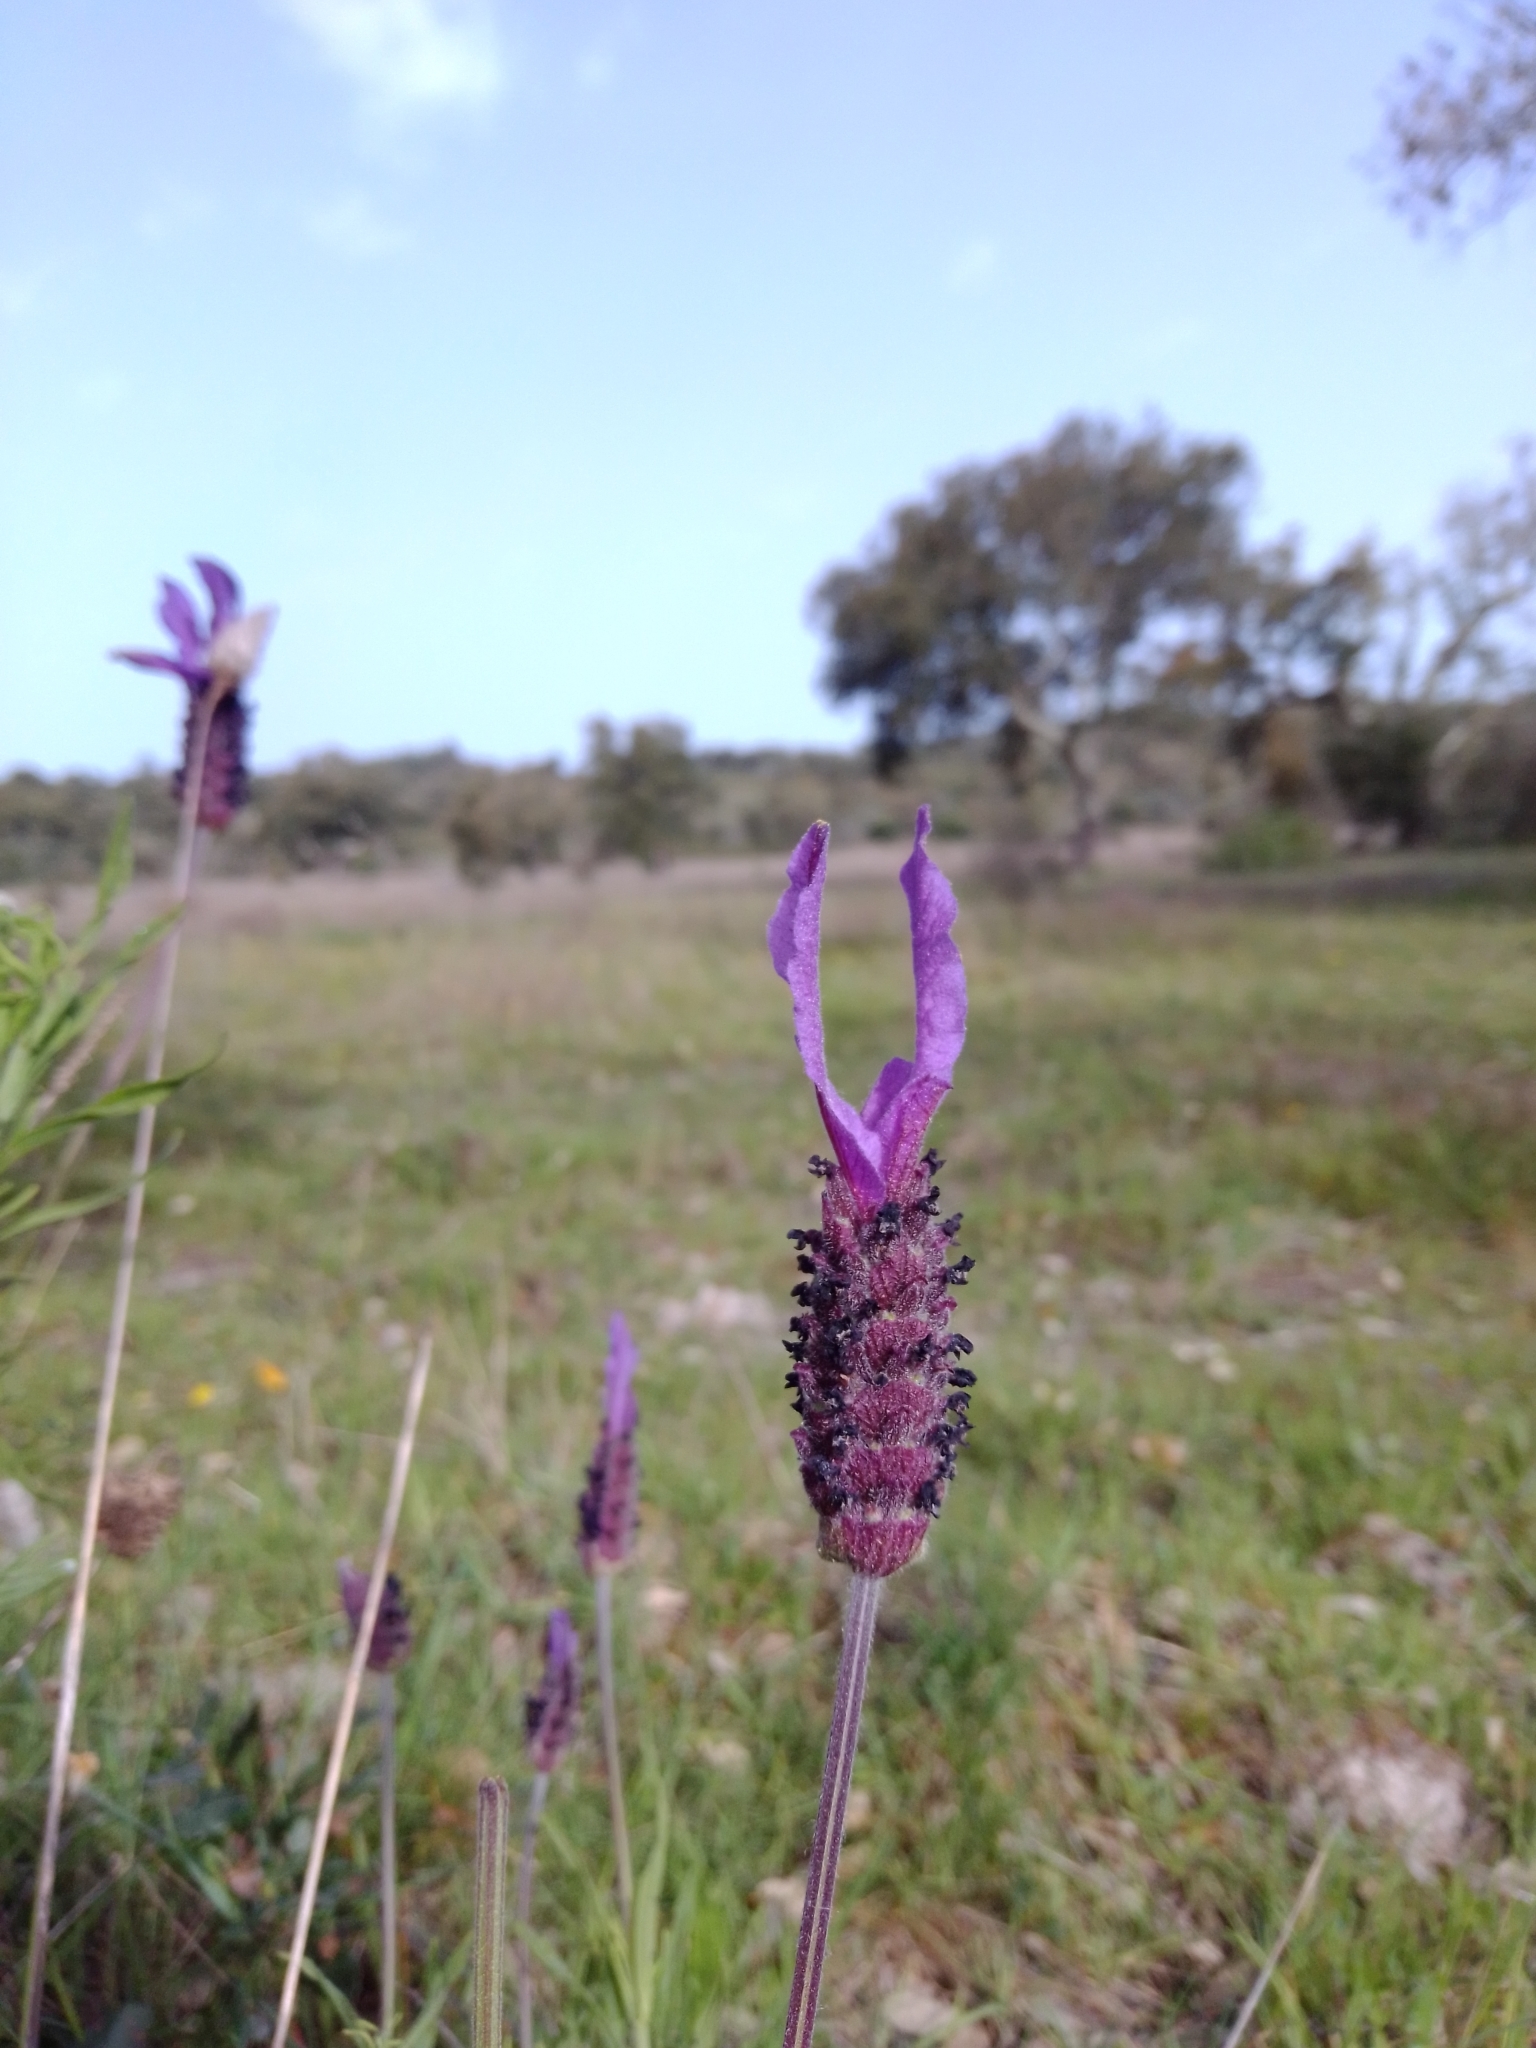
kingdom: Plantae
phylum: Tracheophyta
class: Magnoliopsida
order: Lamiales
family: Lamiaceae
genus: Lavandula
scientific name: Lavandula pedunculata
